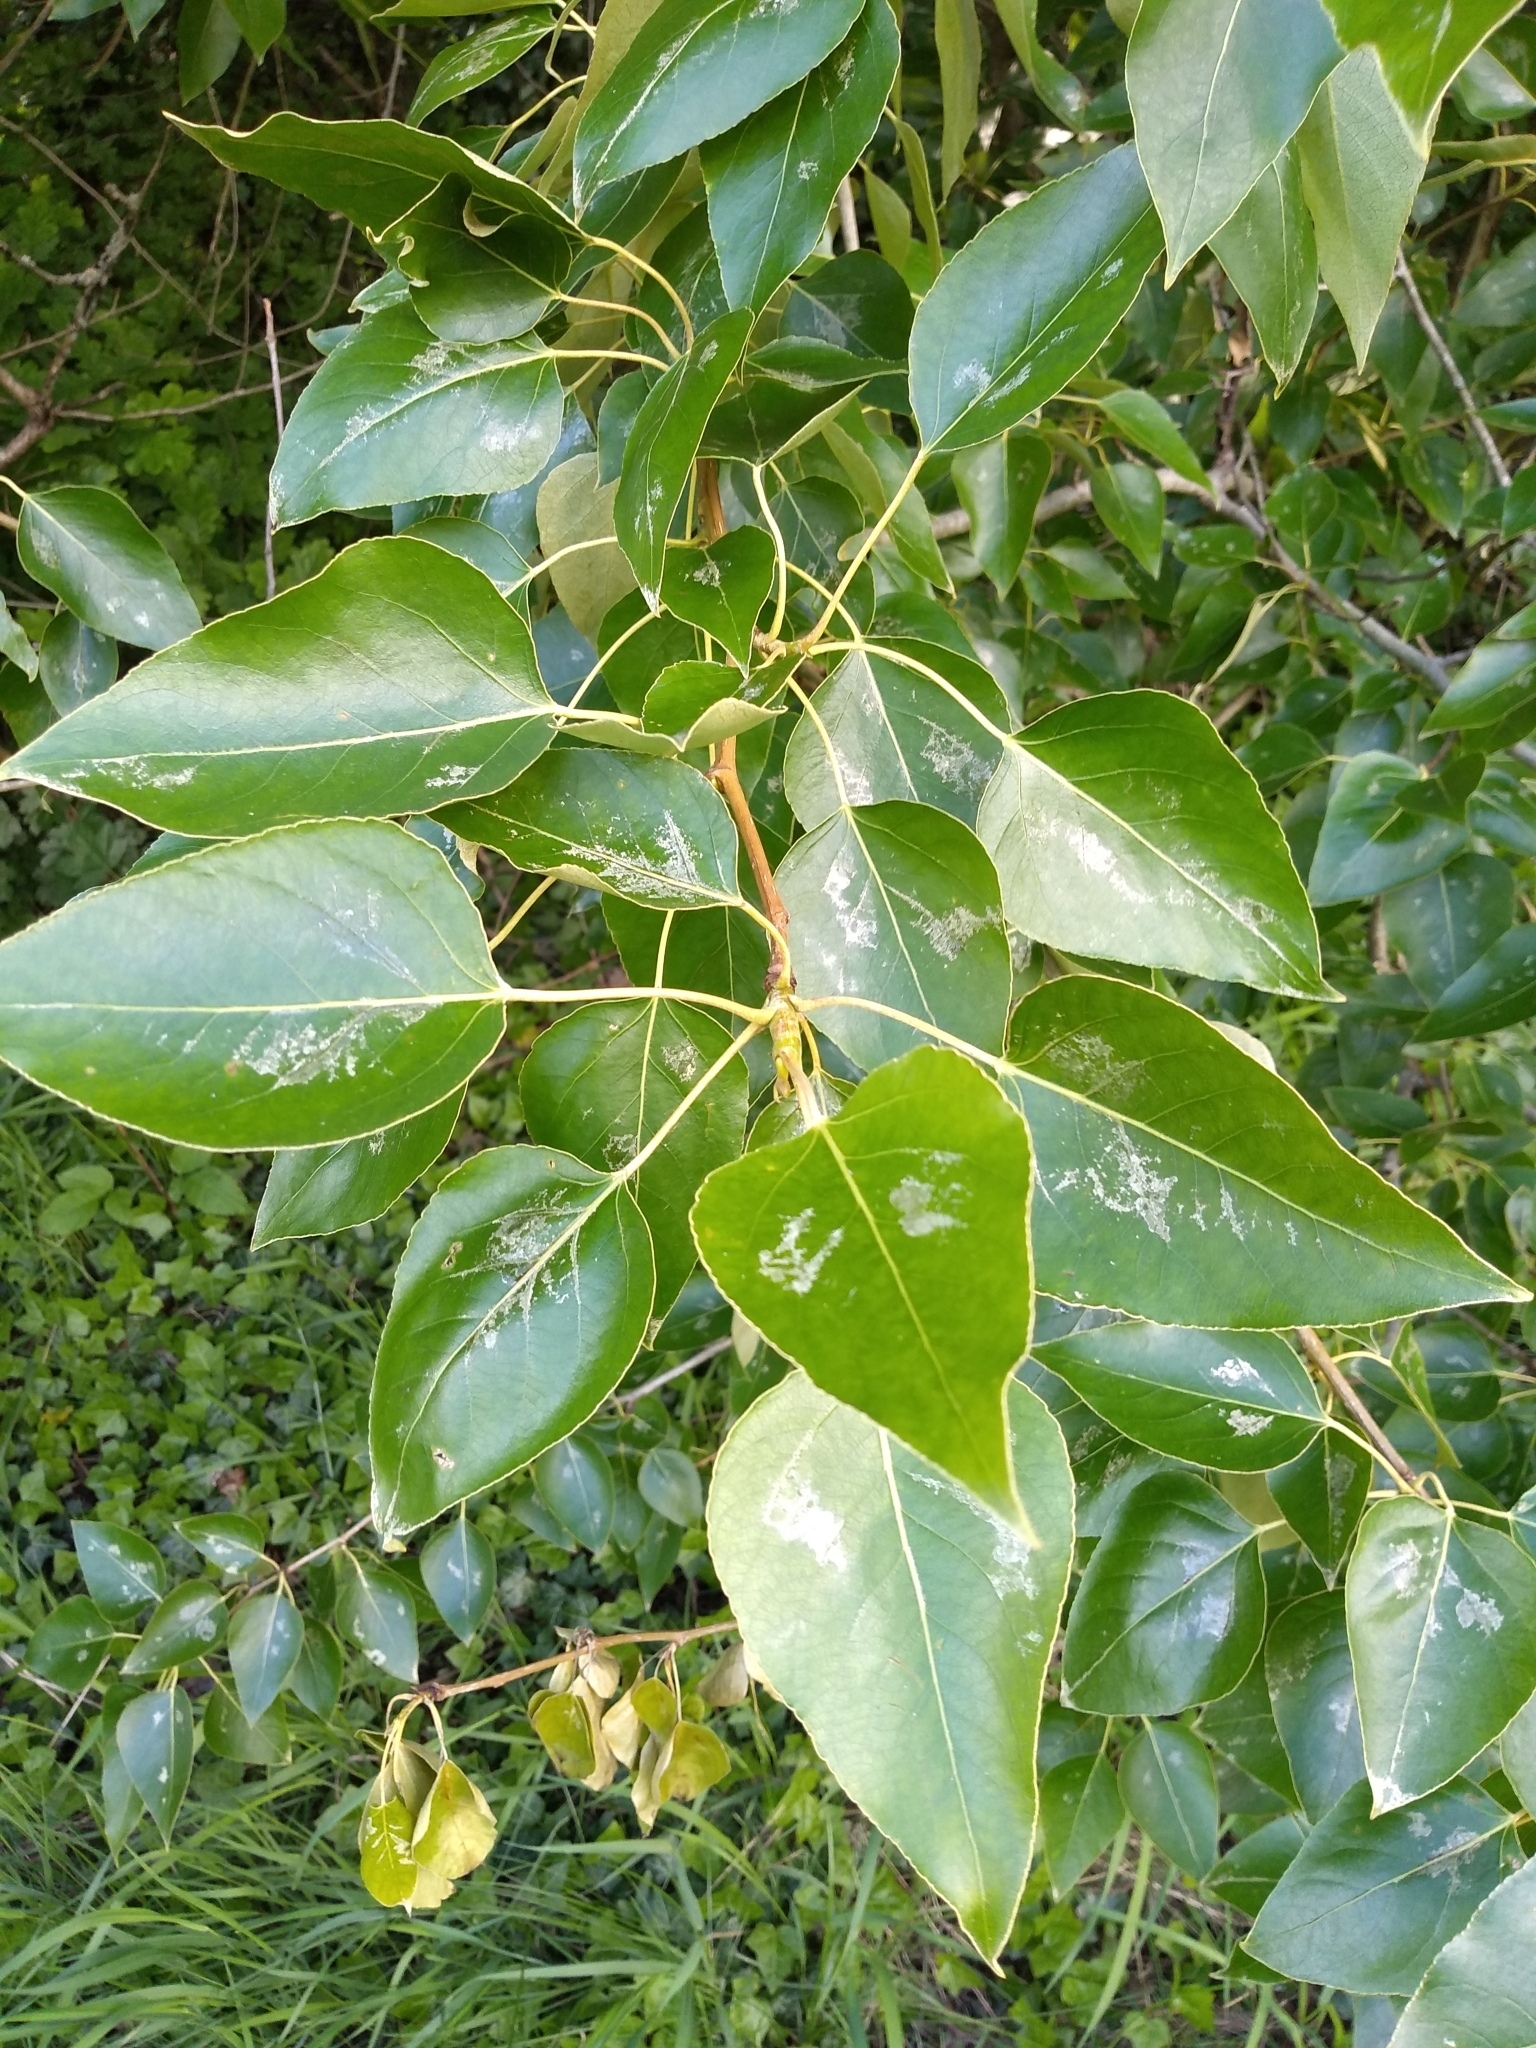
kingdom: Plantae
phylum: Tracheophyta
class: Magnoliopsida
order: Malpighiales
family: Salicaceae
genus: Populus
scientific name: Populus trichocarpa
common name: Black cottonwood
